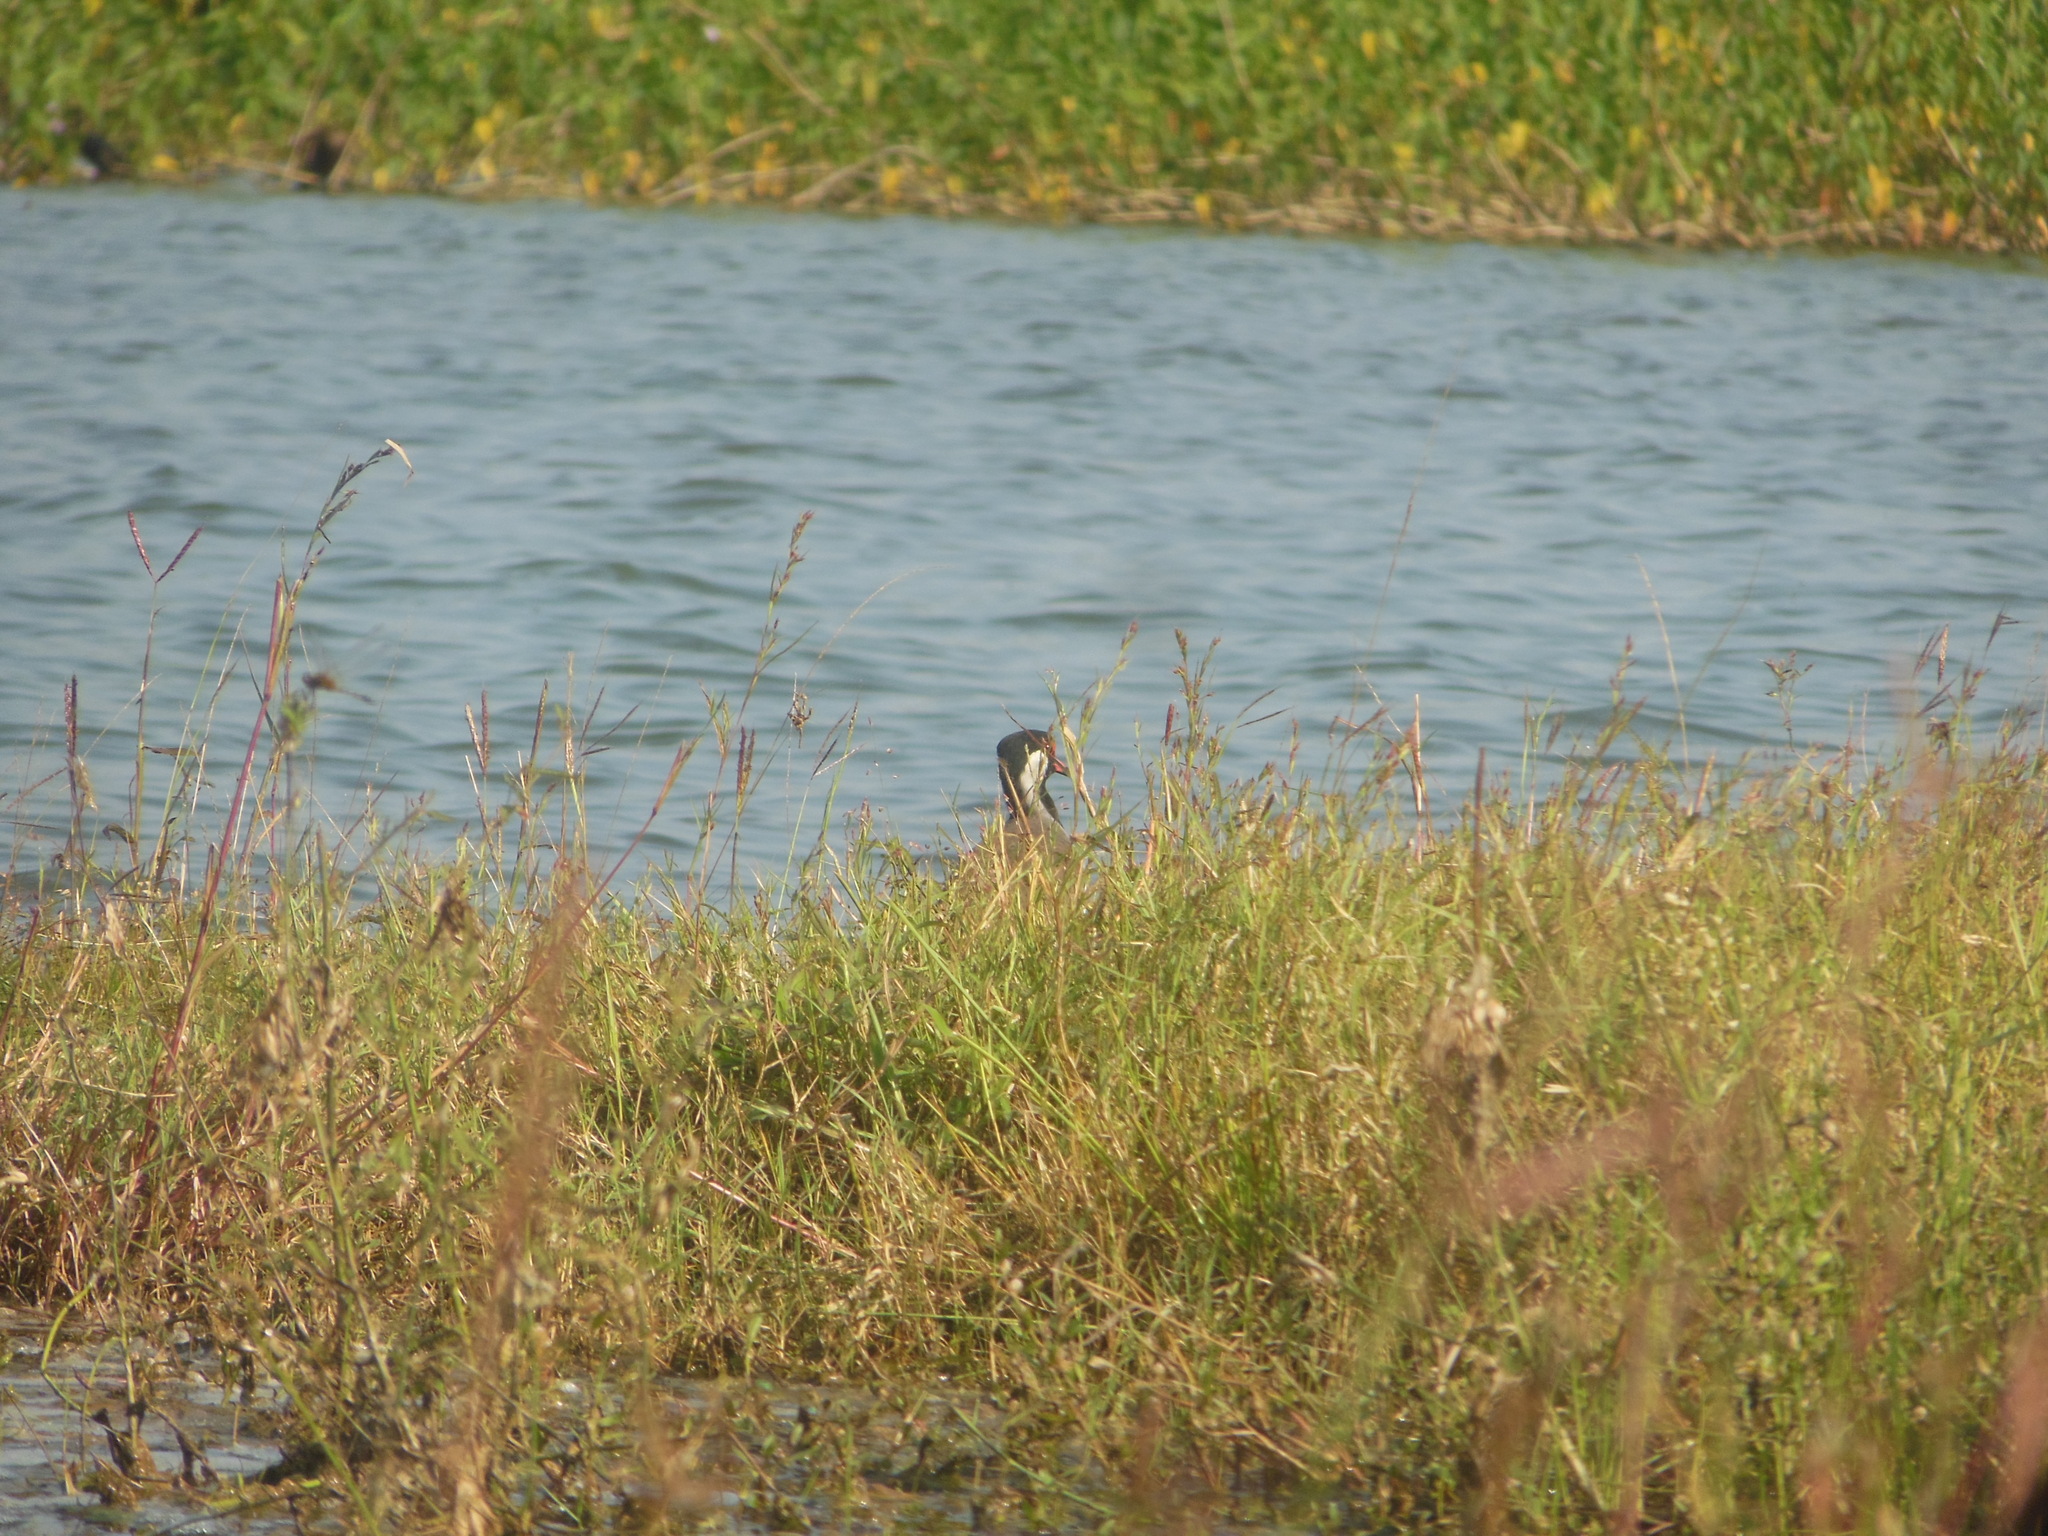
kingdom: Animalia
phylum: Chordata
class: Aves
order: Charadriiformes
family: Charadriidae
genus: Vanellus
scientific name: Vanellus indicus
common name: Red-wattled lapwing
